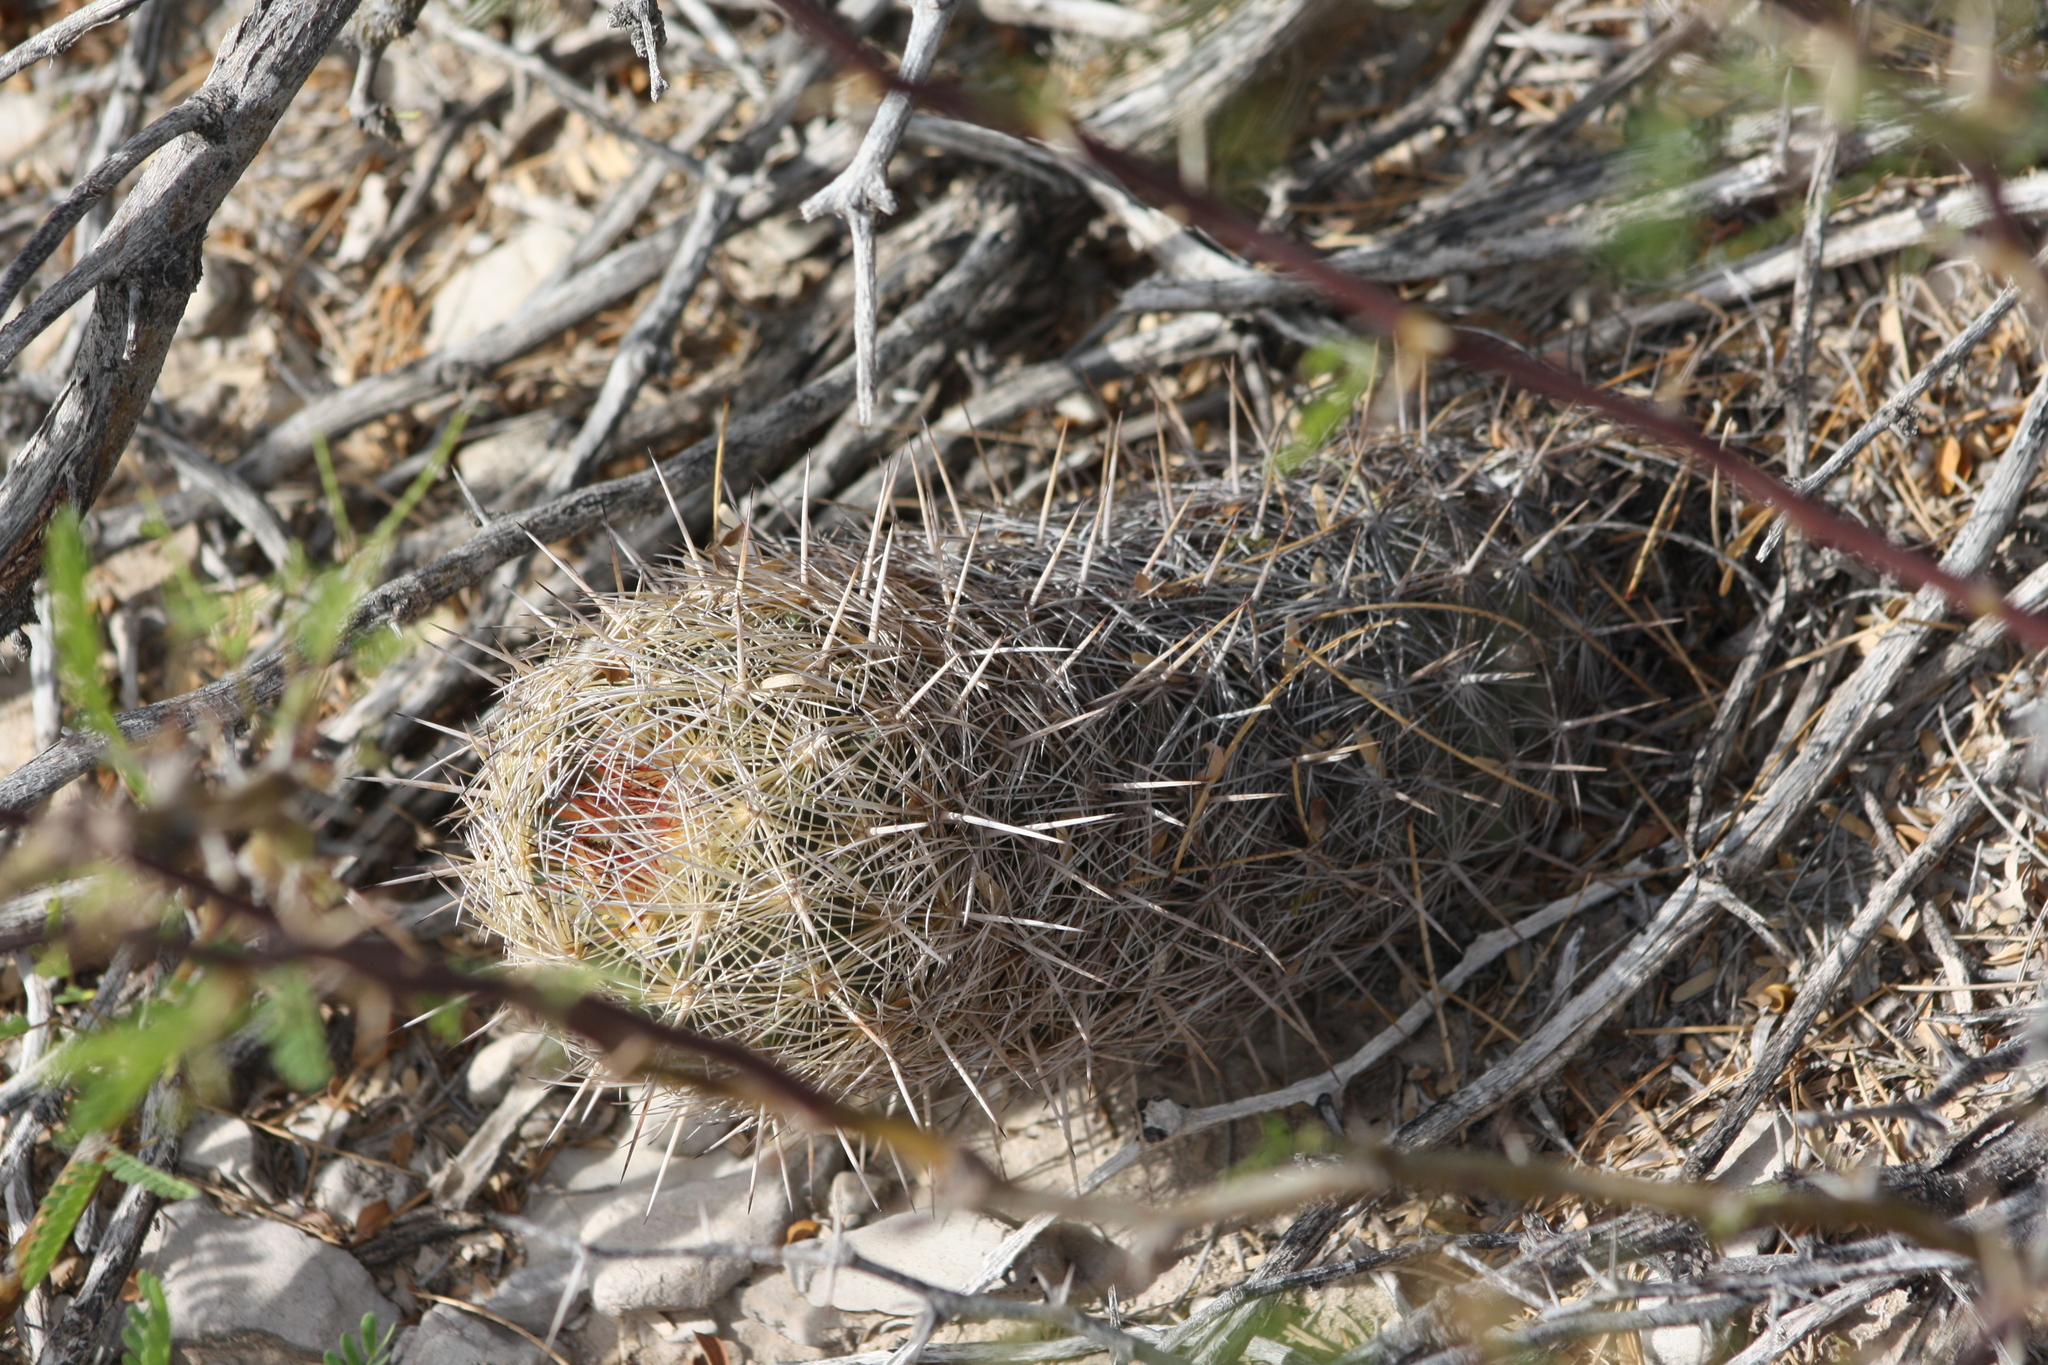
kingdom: Plantae
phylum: Tracheophyta
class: Magnoliopsida
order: Caryophyllales
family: Cactaceae
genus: Thelocactus
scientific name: Thelocactus bicolor
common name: Glory of texas
